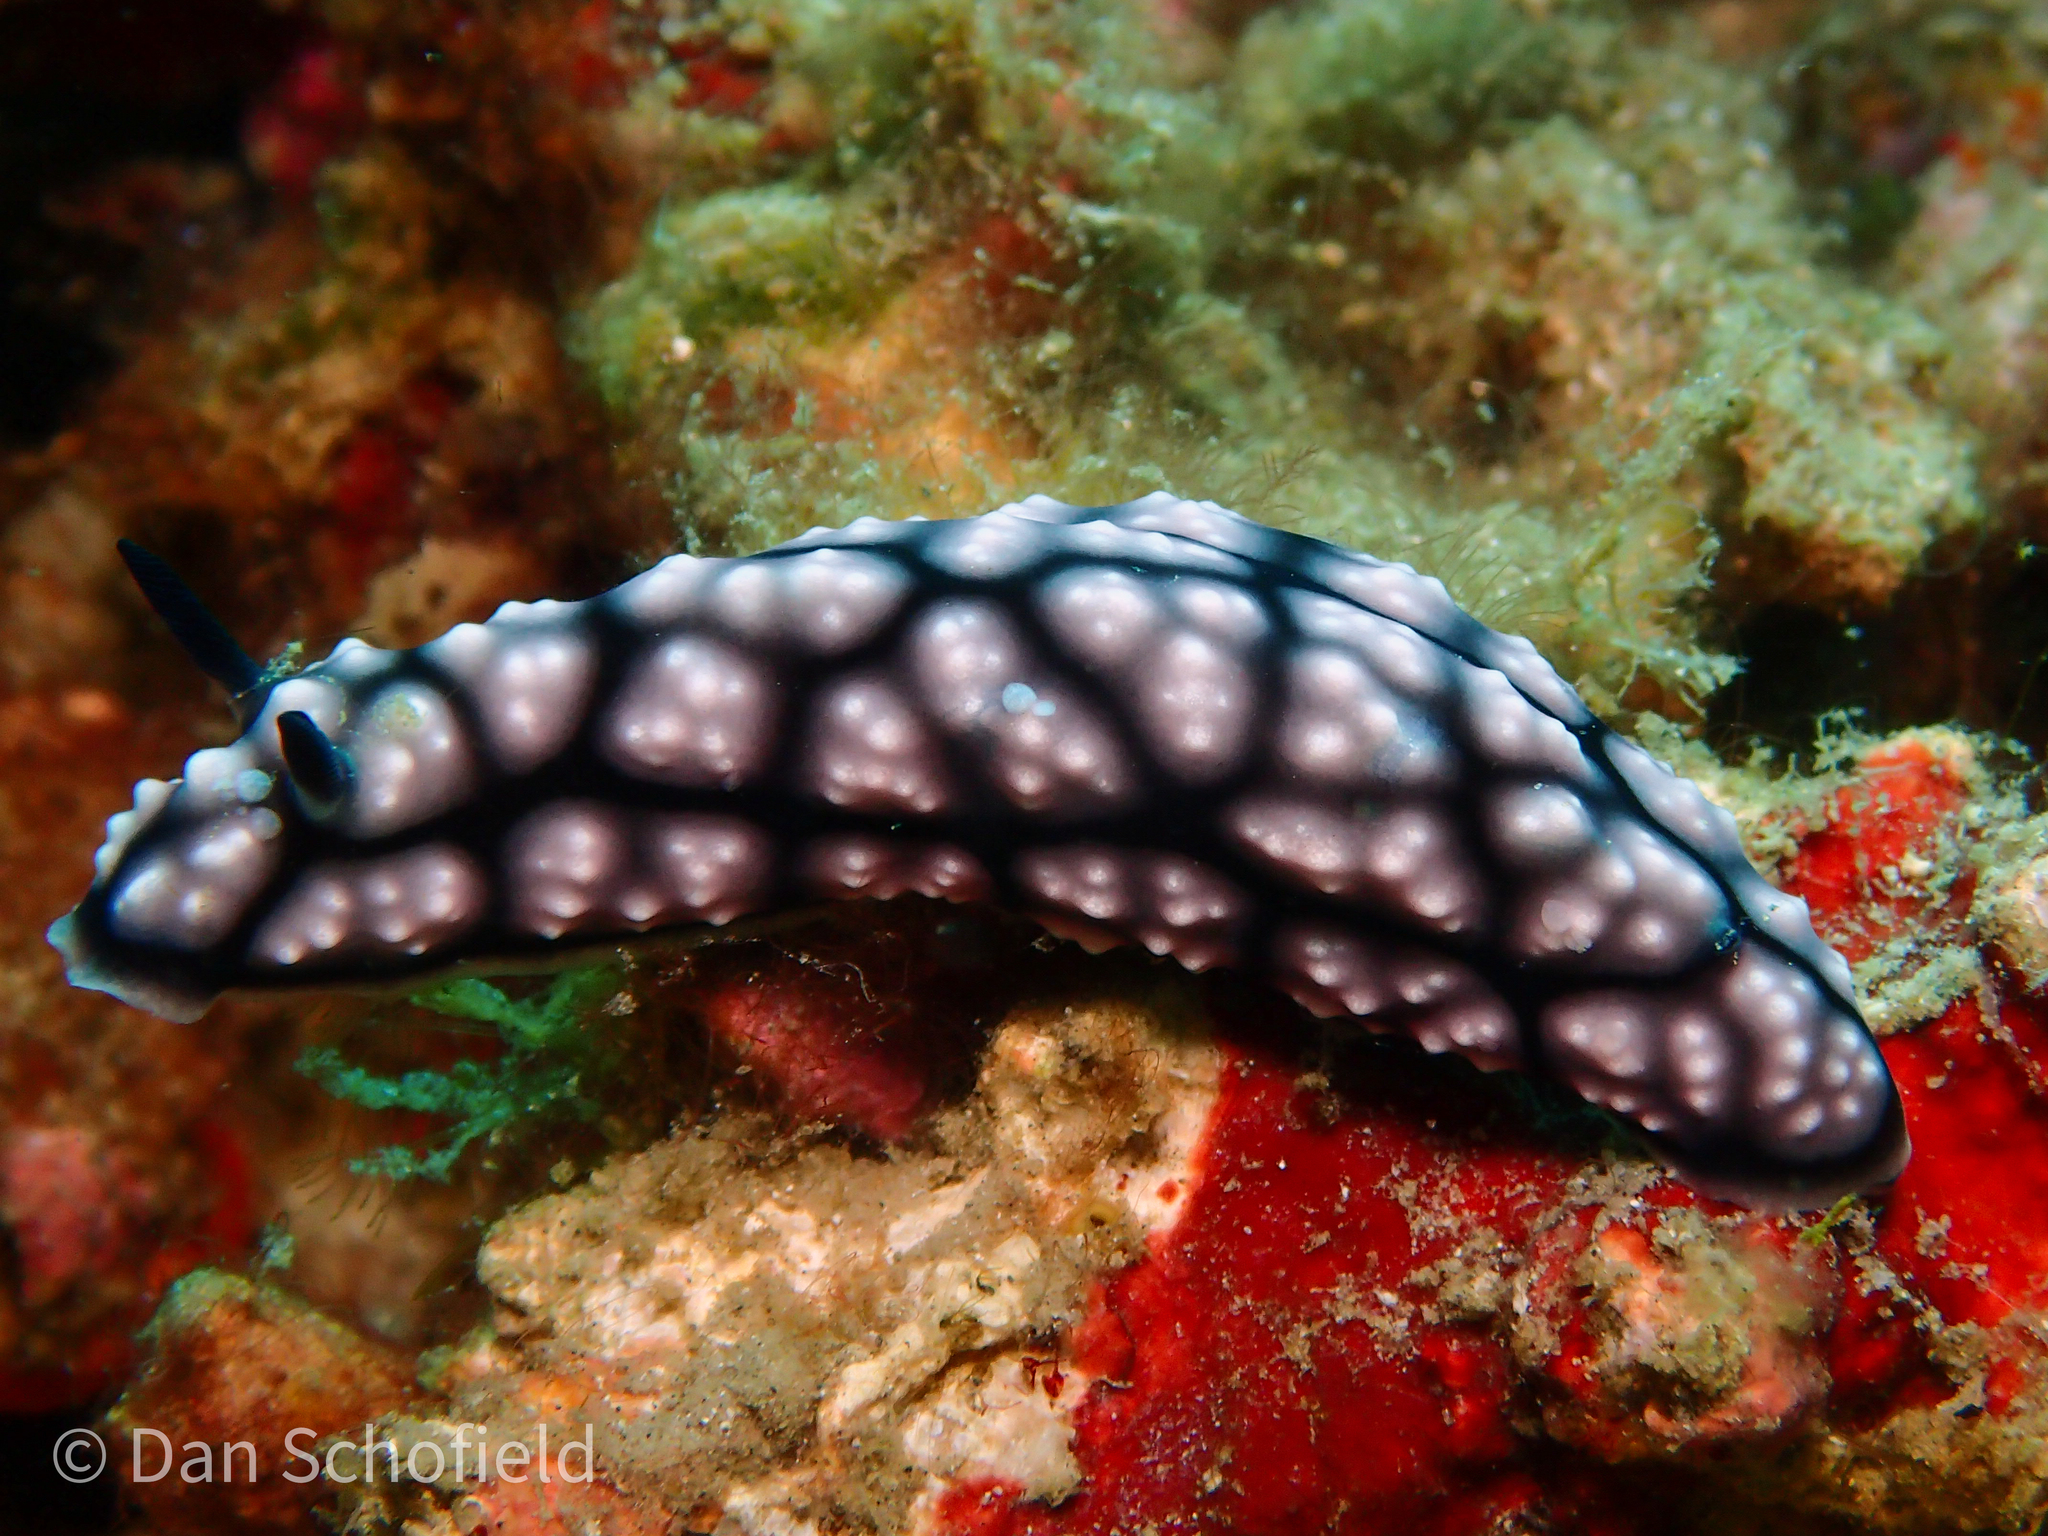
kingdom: Animalia
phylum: Mollusca
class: Gastropoda
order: Nudibranchia
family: Phyllidiidae
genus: Phyllidiella
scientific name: Phyllidiella pustulosa
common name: Pustular phyllidia
